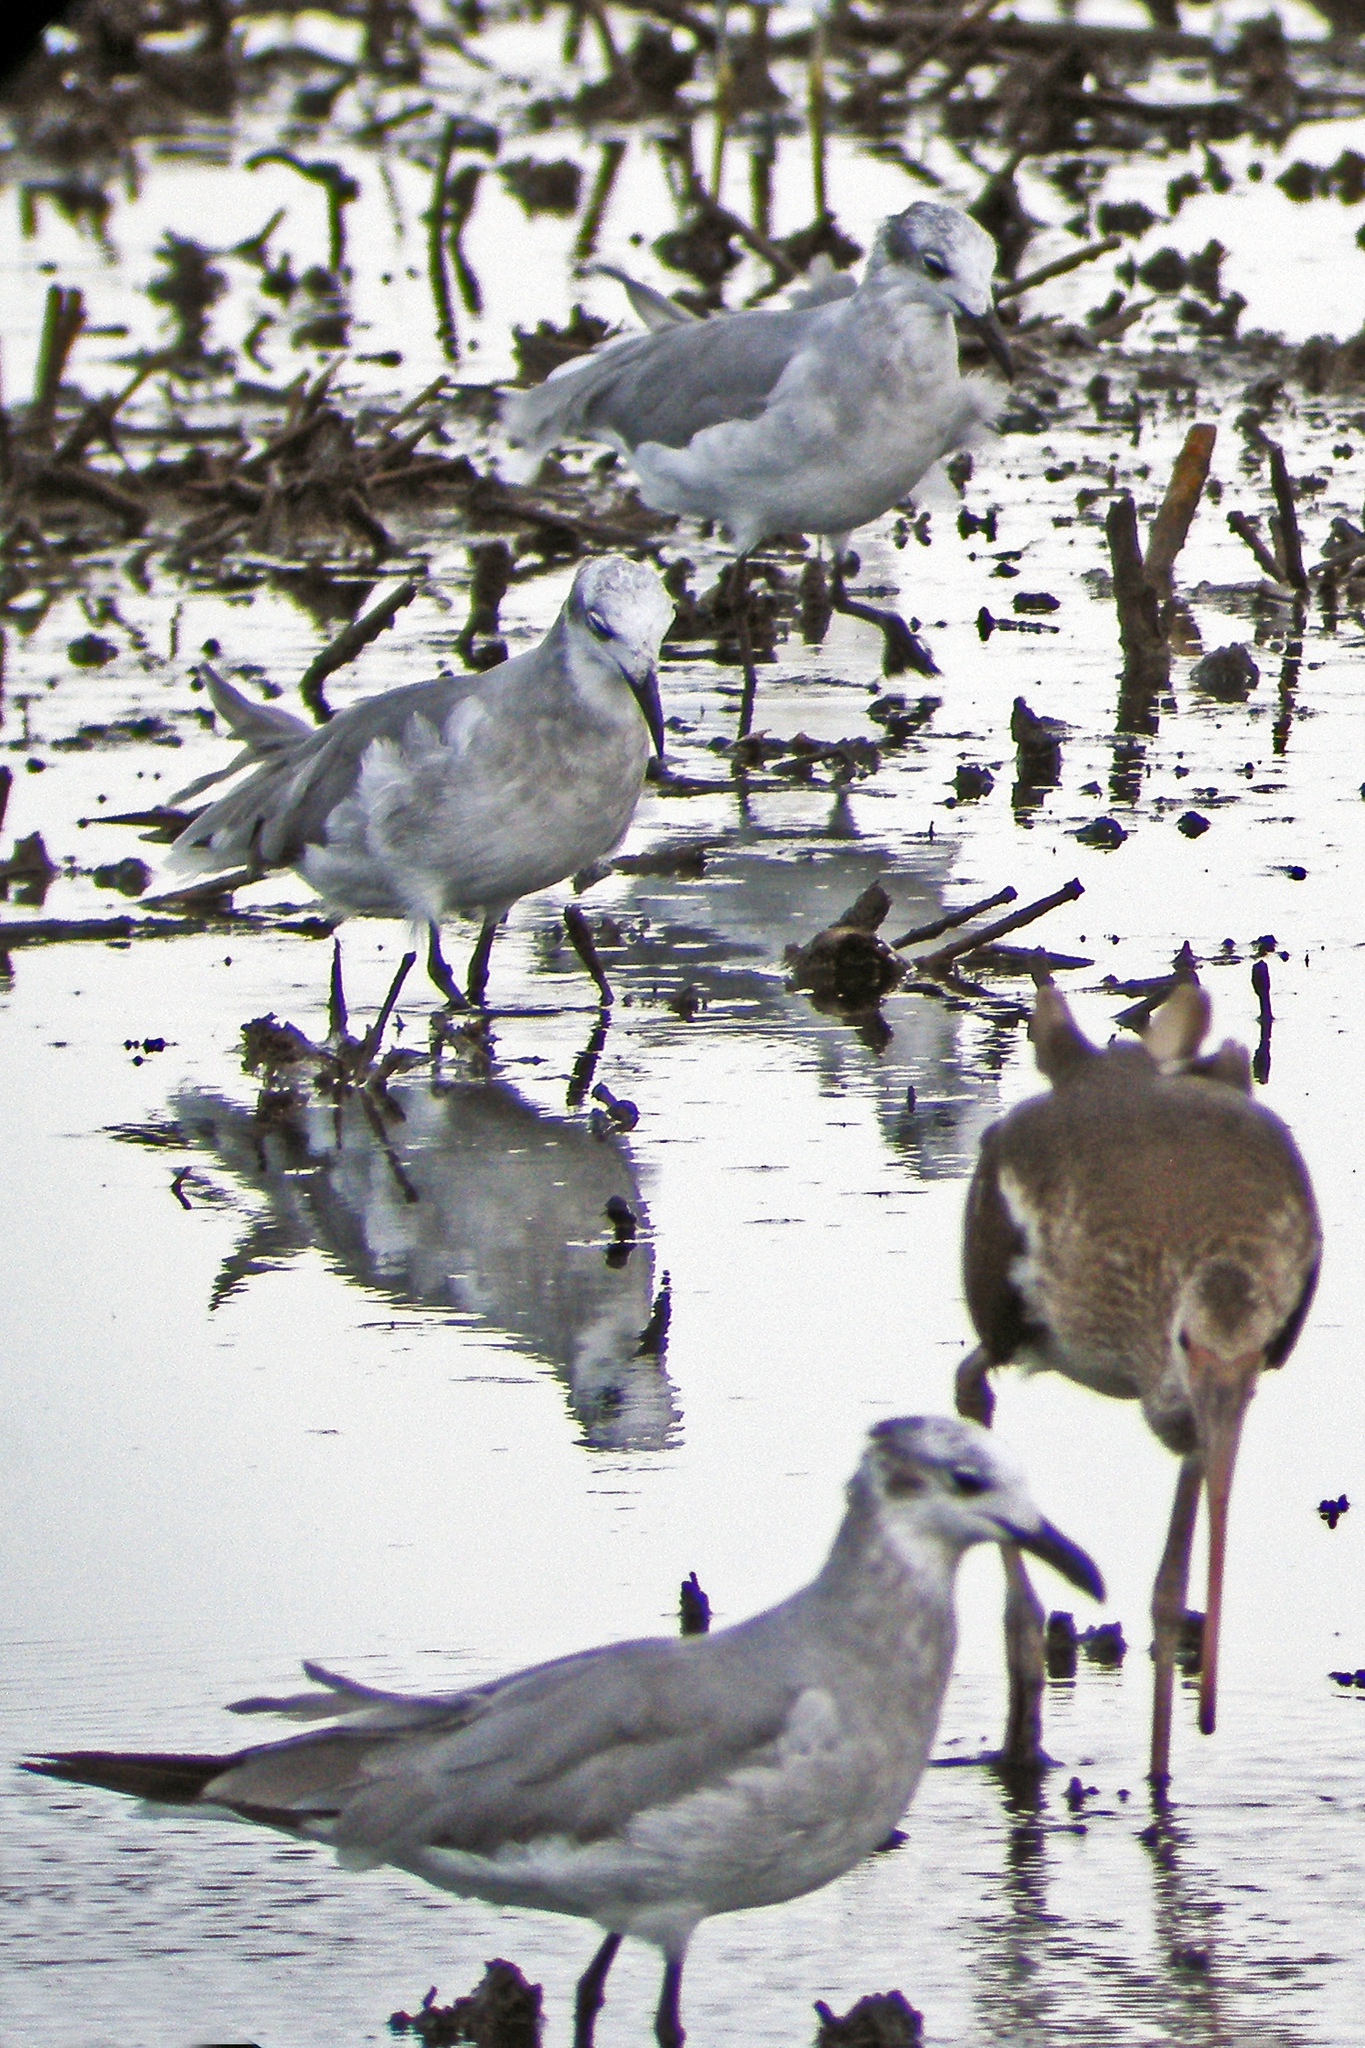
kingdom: Animalia
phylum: Chordata
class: Aves
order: Pelecaniformes
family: Threskiornithidae
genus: Eudocimus
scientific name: Eudocimus albus
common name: White ibis
